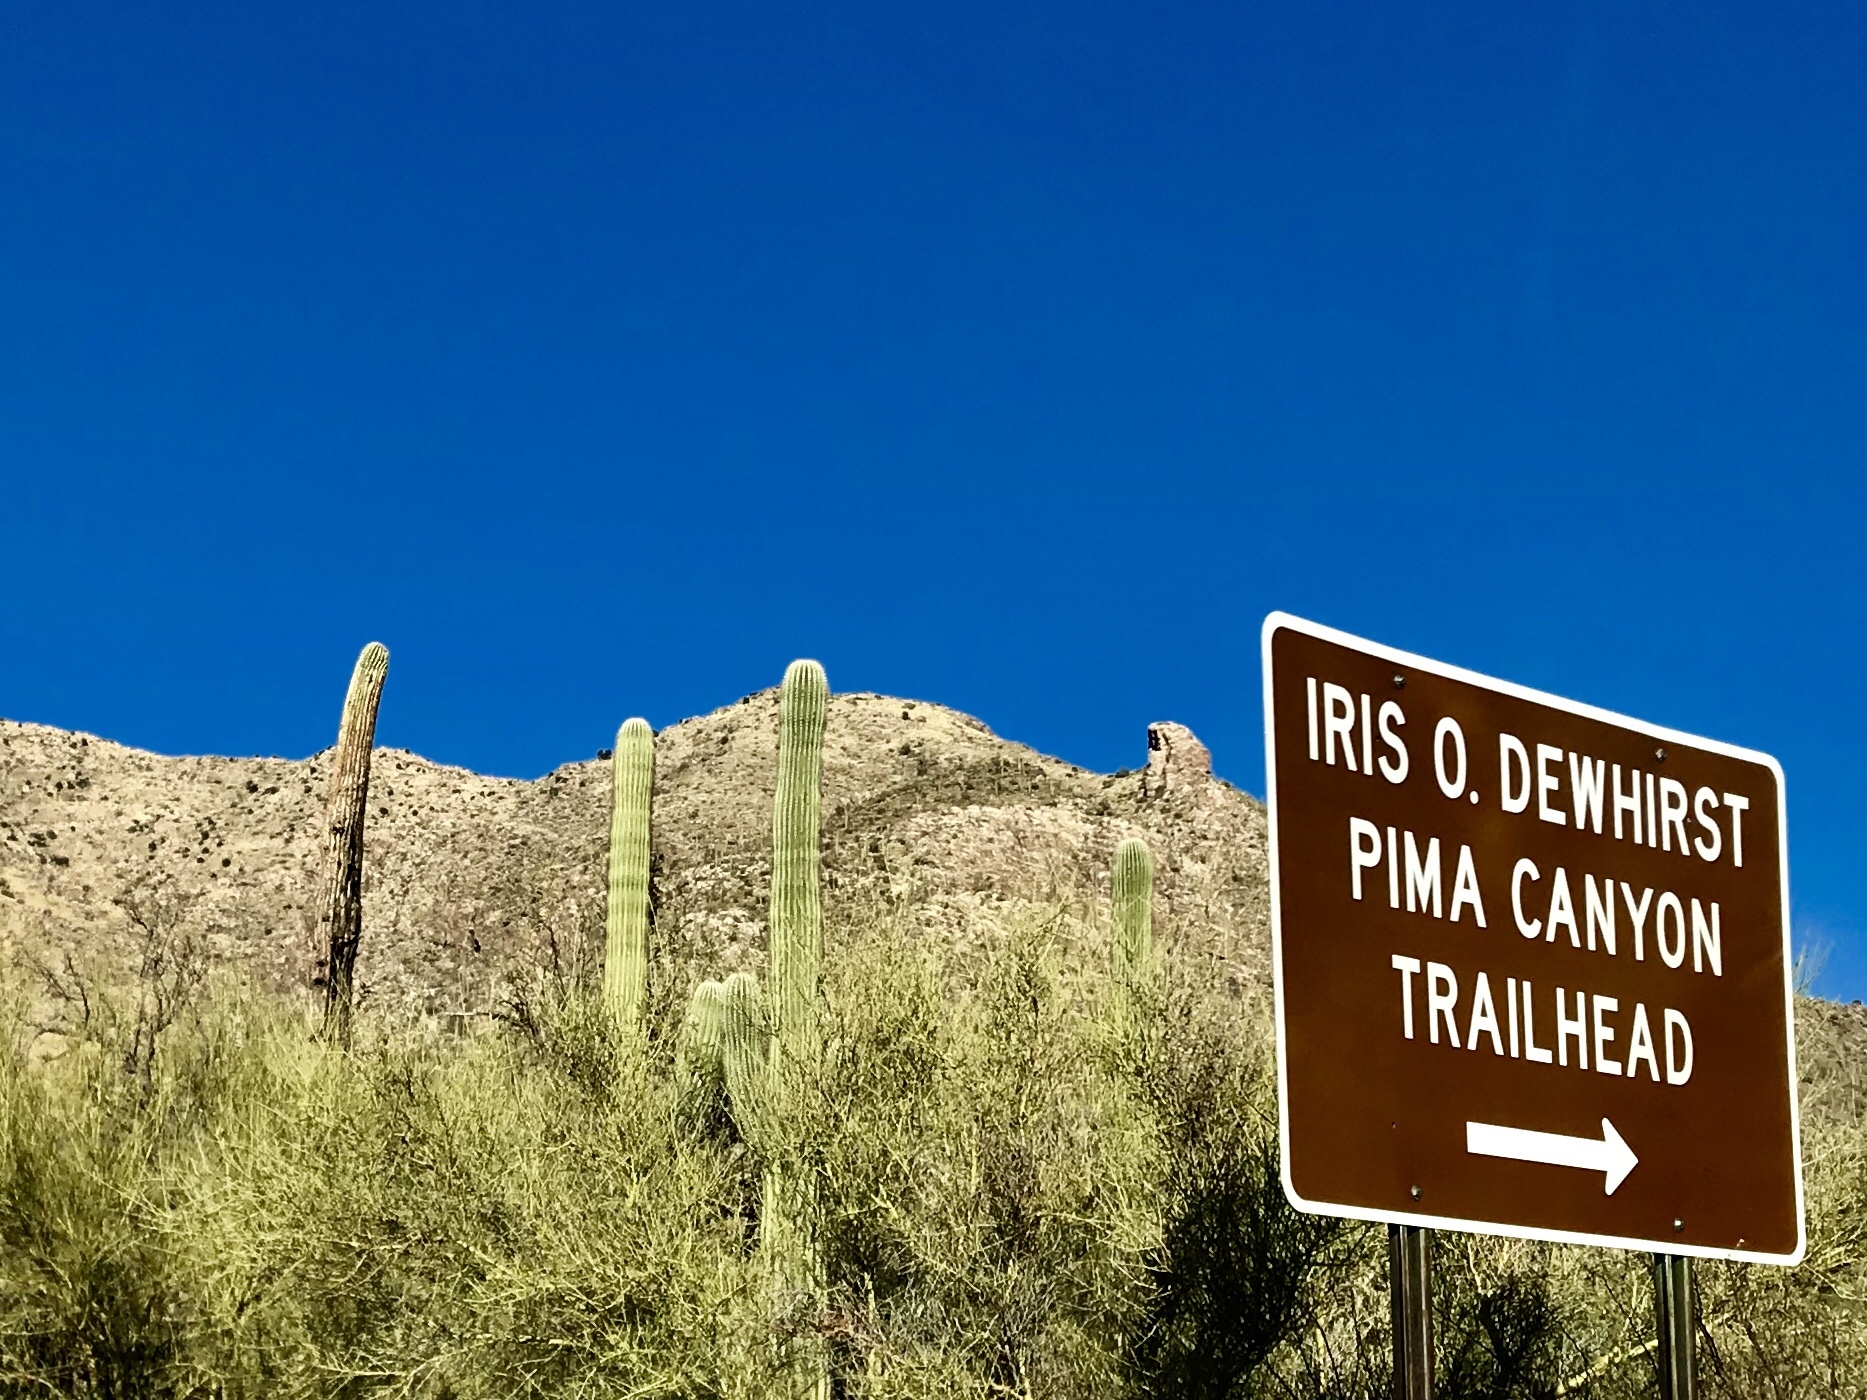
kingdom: Plantae
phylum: Tracheophyta
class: Magnoliopsida
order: Caryophyllales
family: Cactaceae
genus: Carnegiea
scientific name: Carnegiea gigantea
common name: Saguaro
